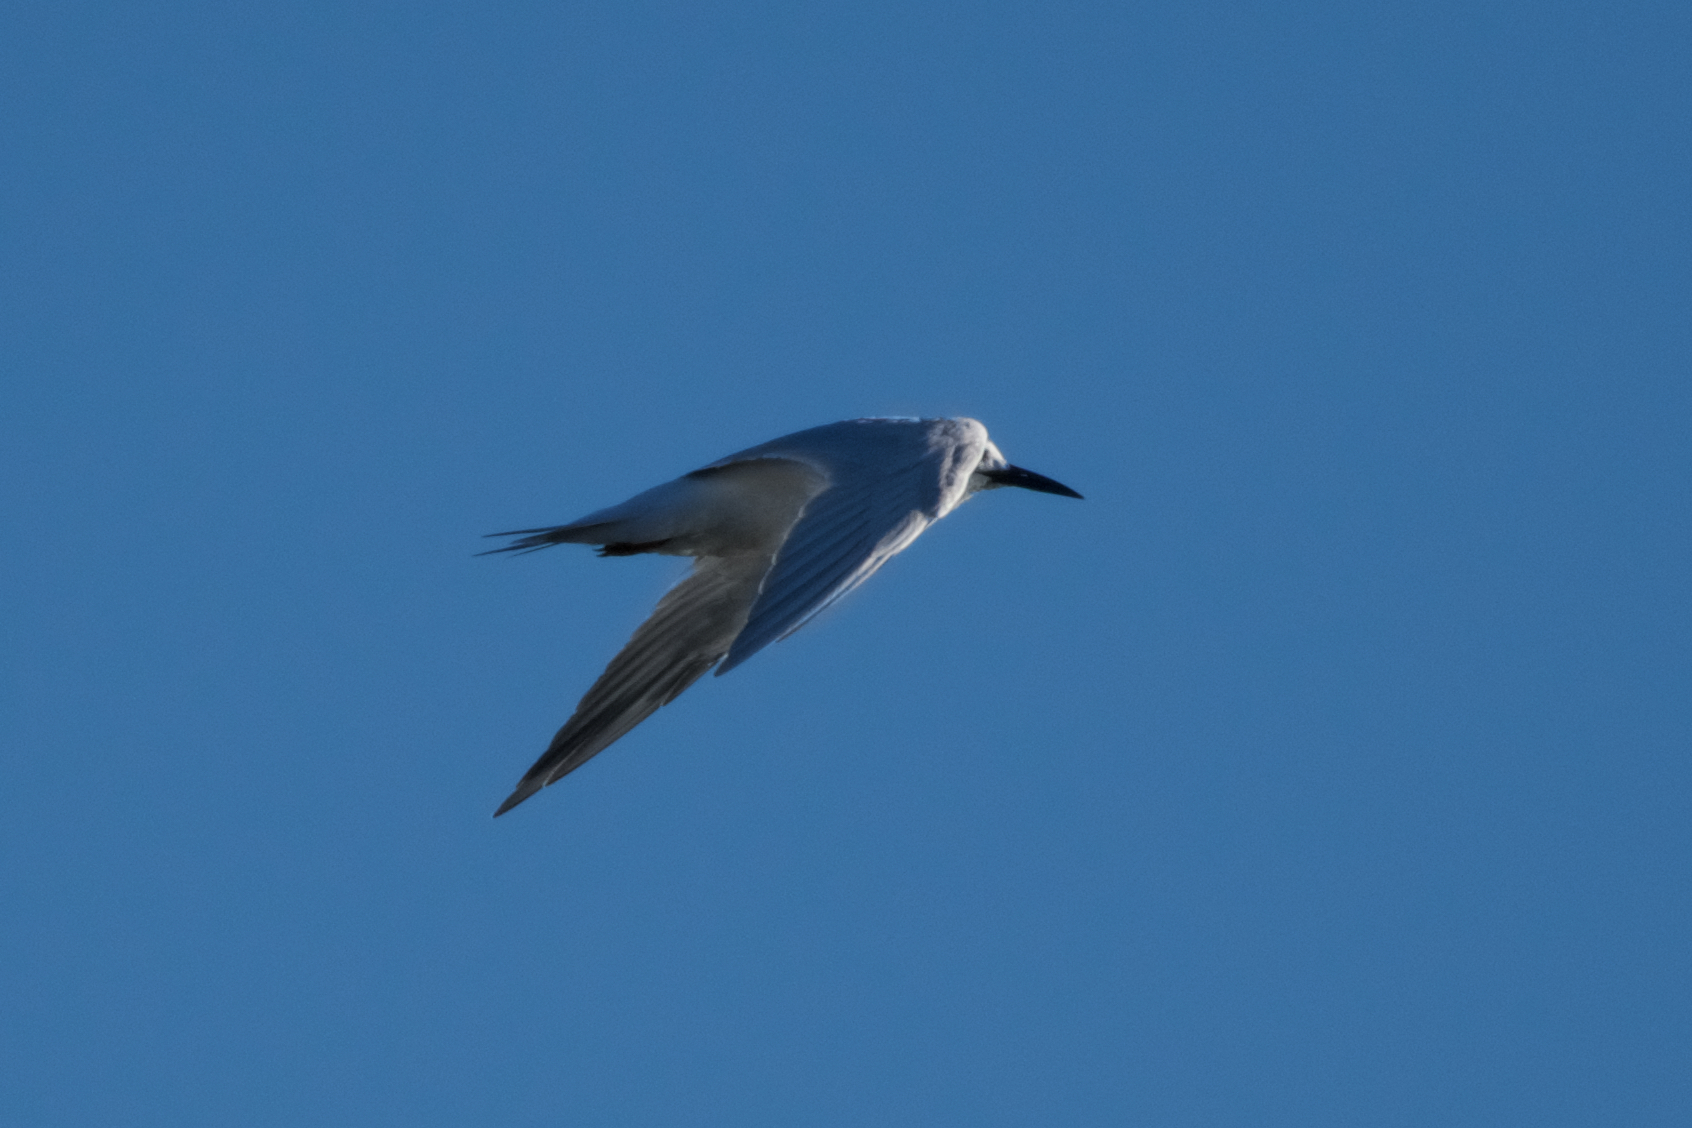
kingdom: Animalia
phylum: Chordata
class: Aves
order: Charadriiformes
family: Laridae
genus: Sterna
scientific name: Sterna forsteri
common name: Forster's tern
